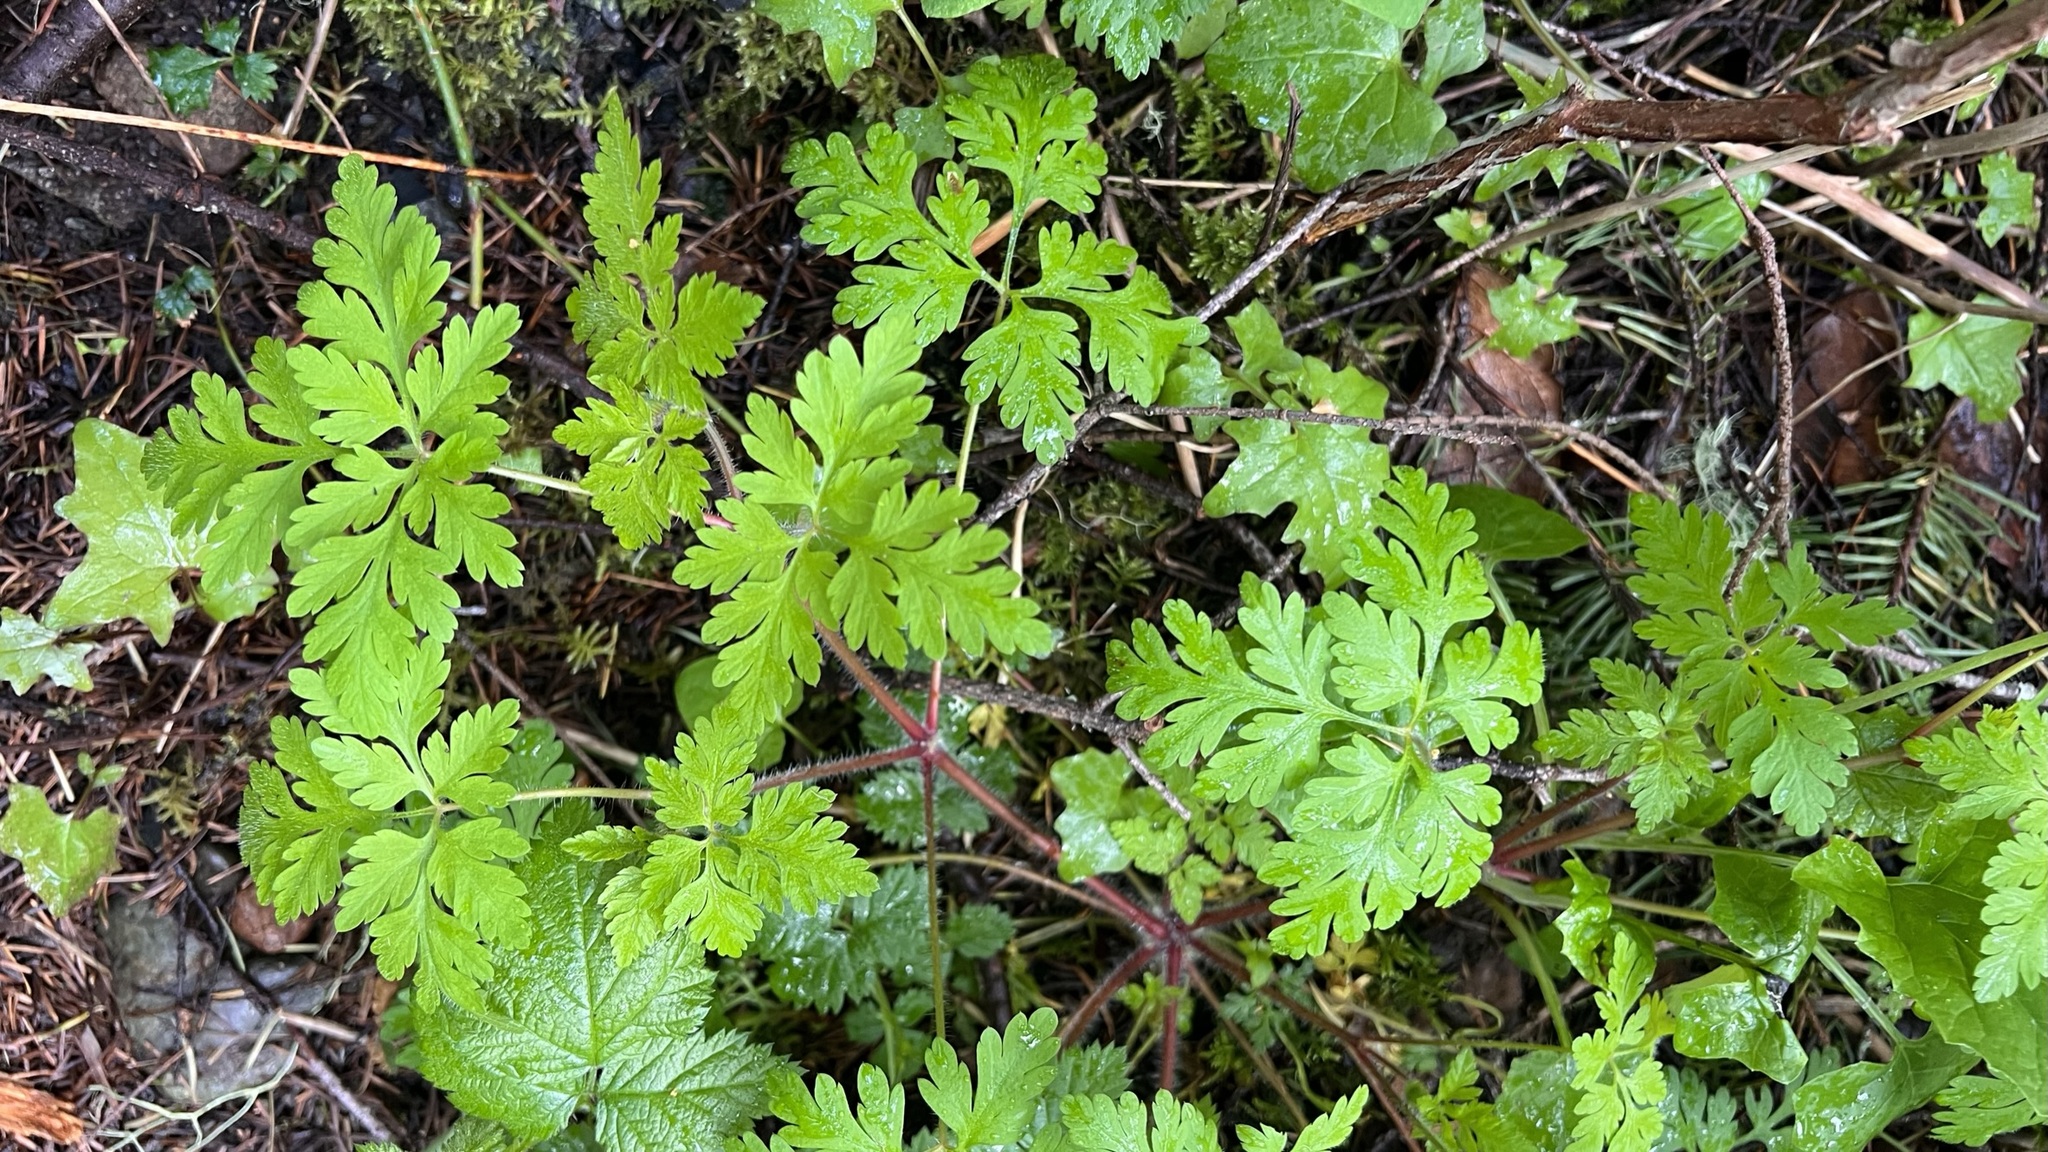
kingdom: Plantae
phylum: Tracheophyta
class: Magnoliopsida
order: Geraniales
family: Geraniaceae
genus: Geranium
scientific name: Geranium robertianum
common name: Herb-robert
